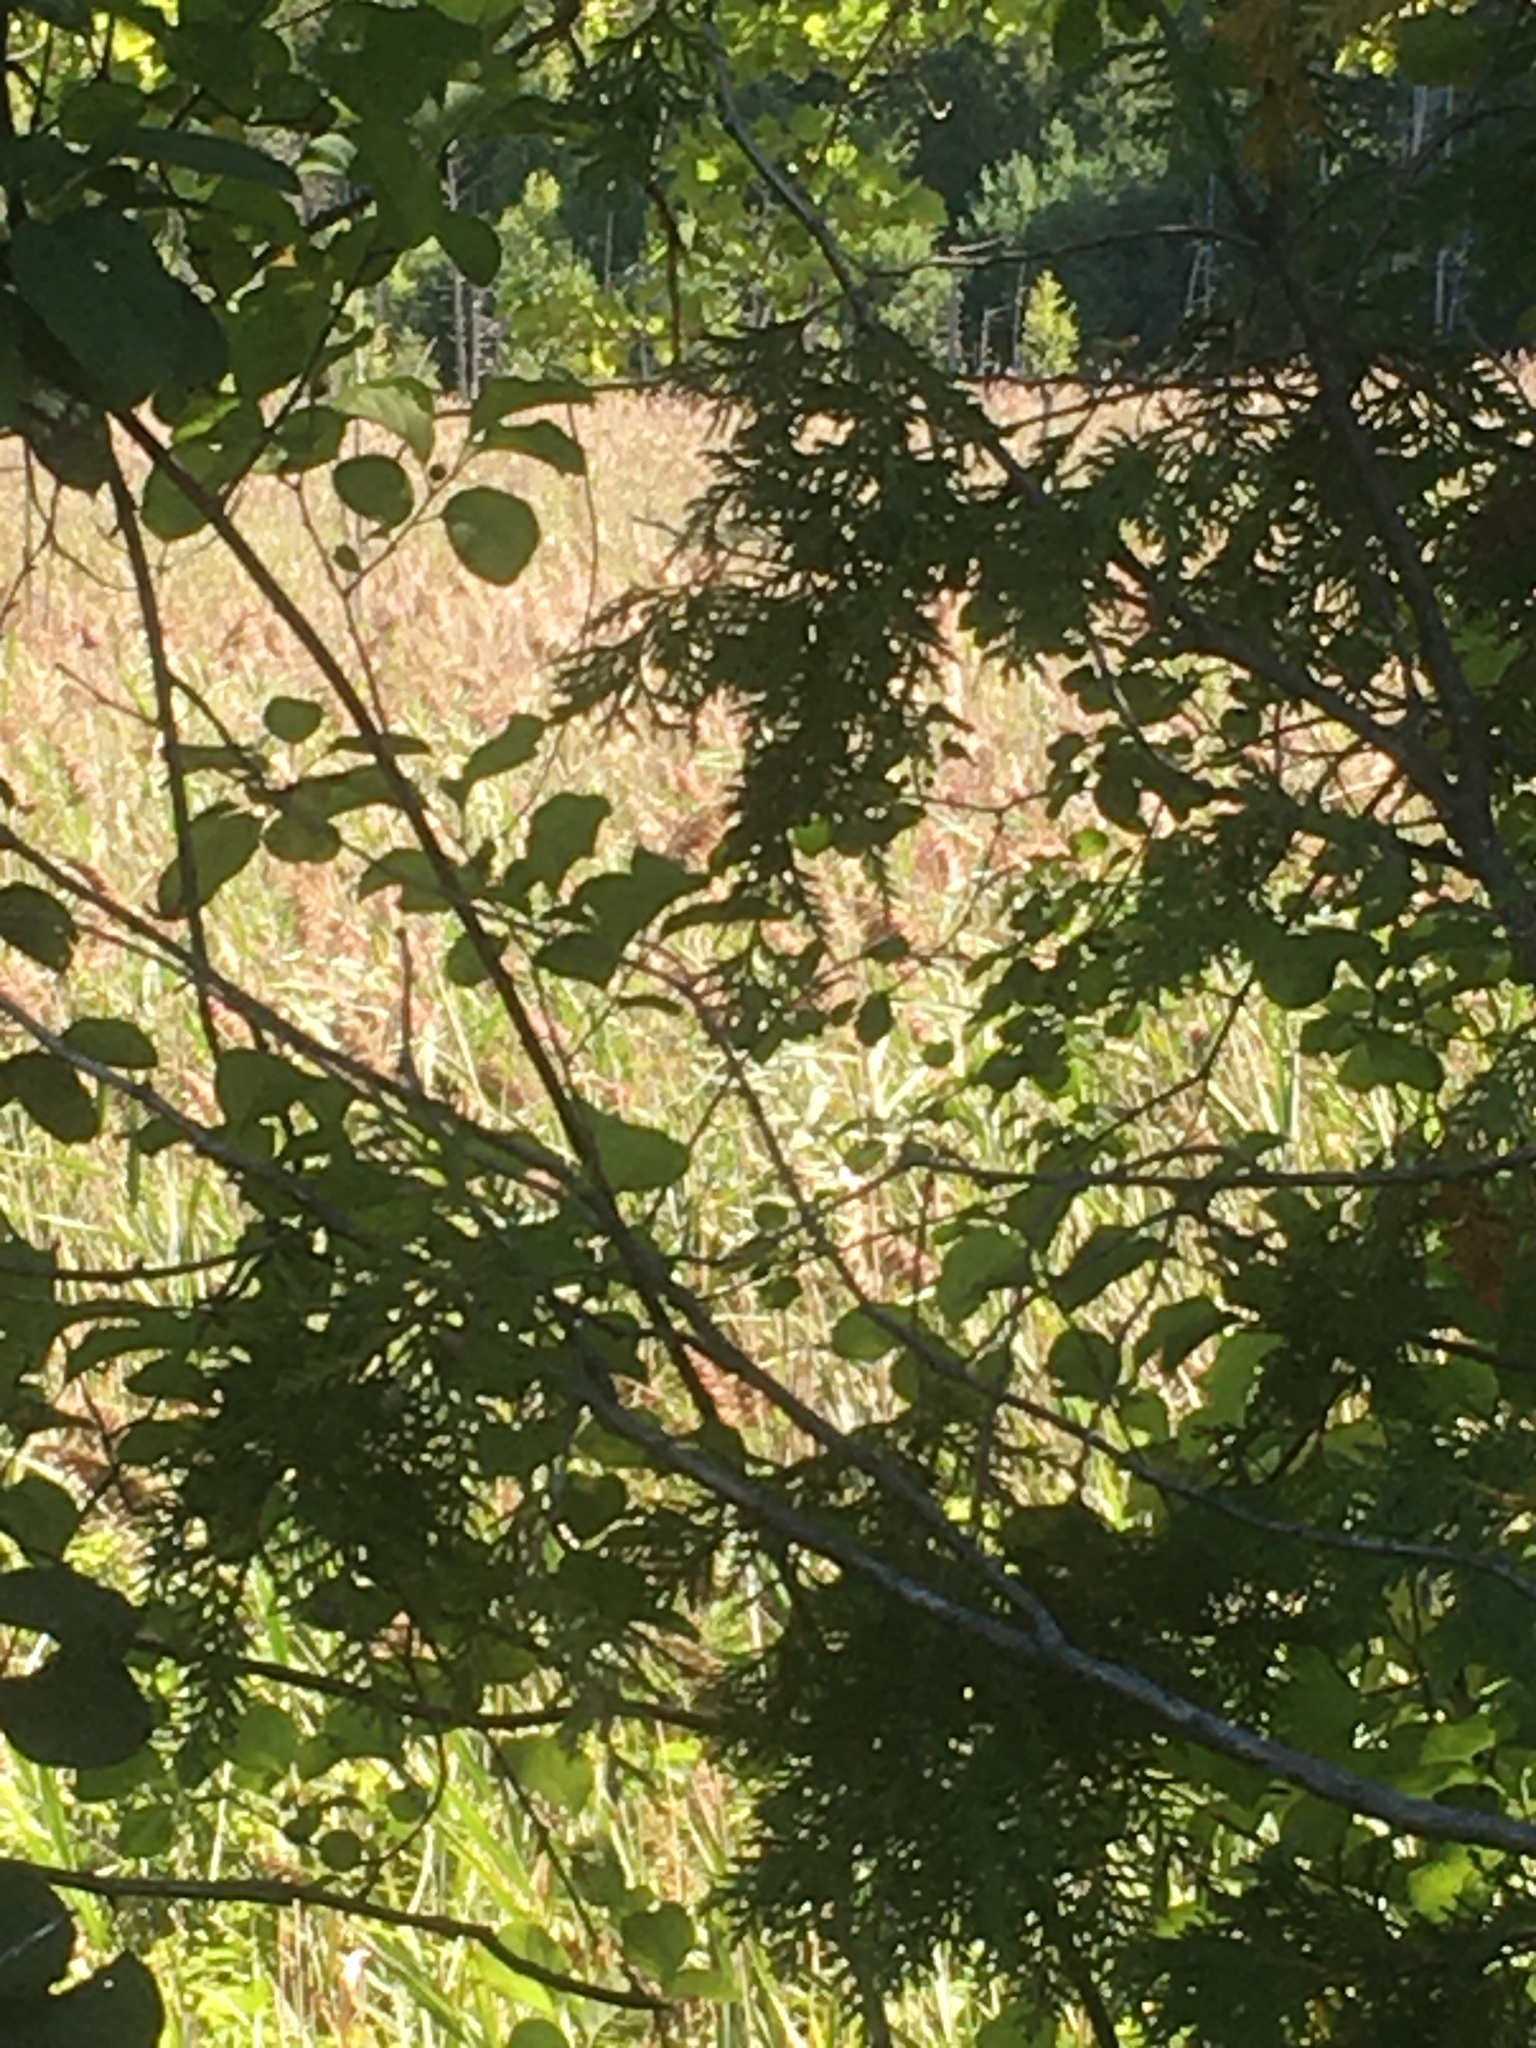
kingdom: Plantae
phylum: Tracheophyta
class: Liliopsida
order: Poales
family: Poaceae
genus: Phragmites
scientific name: Phragmites australis
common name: Common reed
